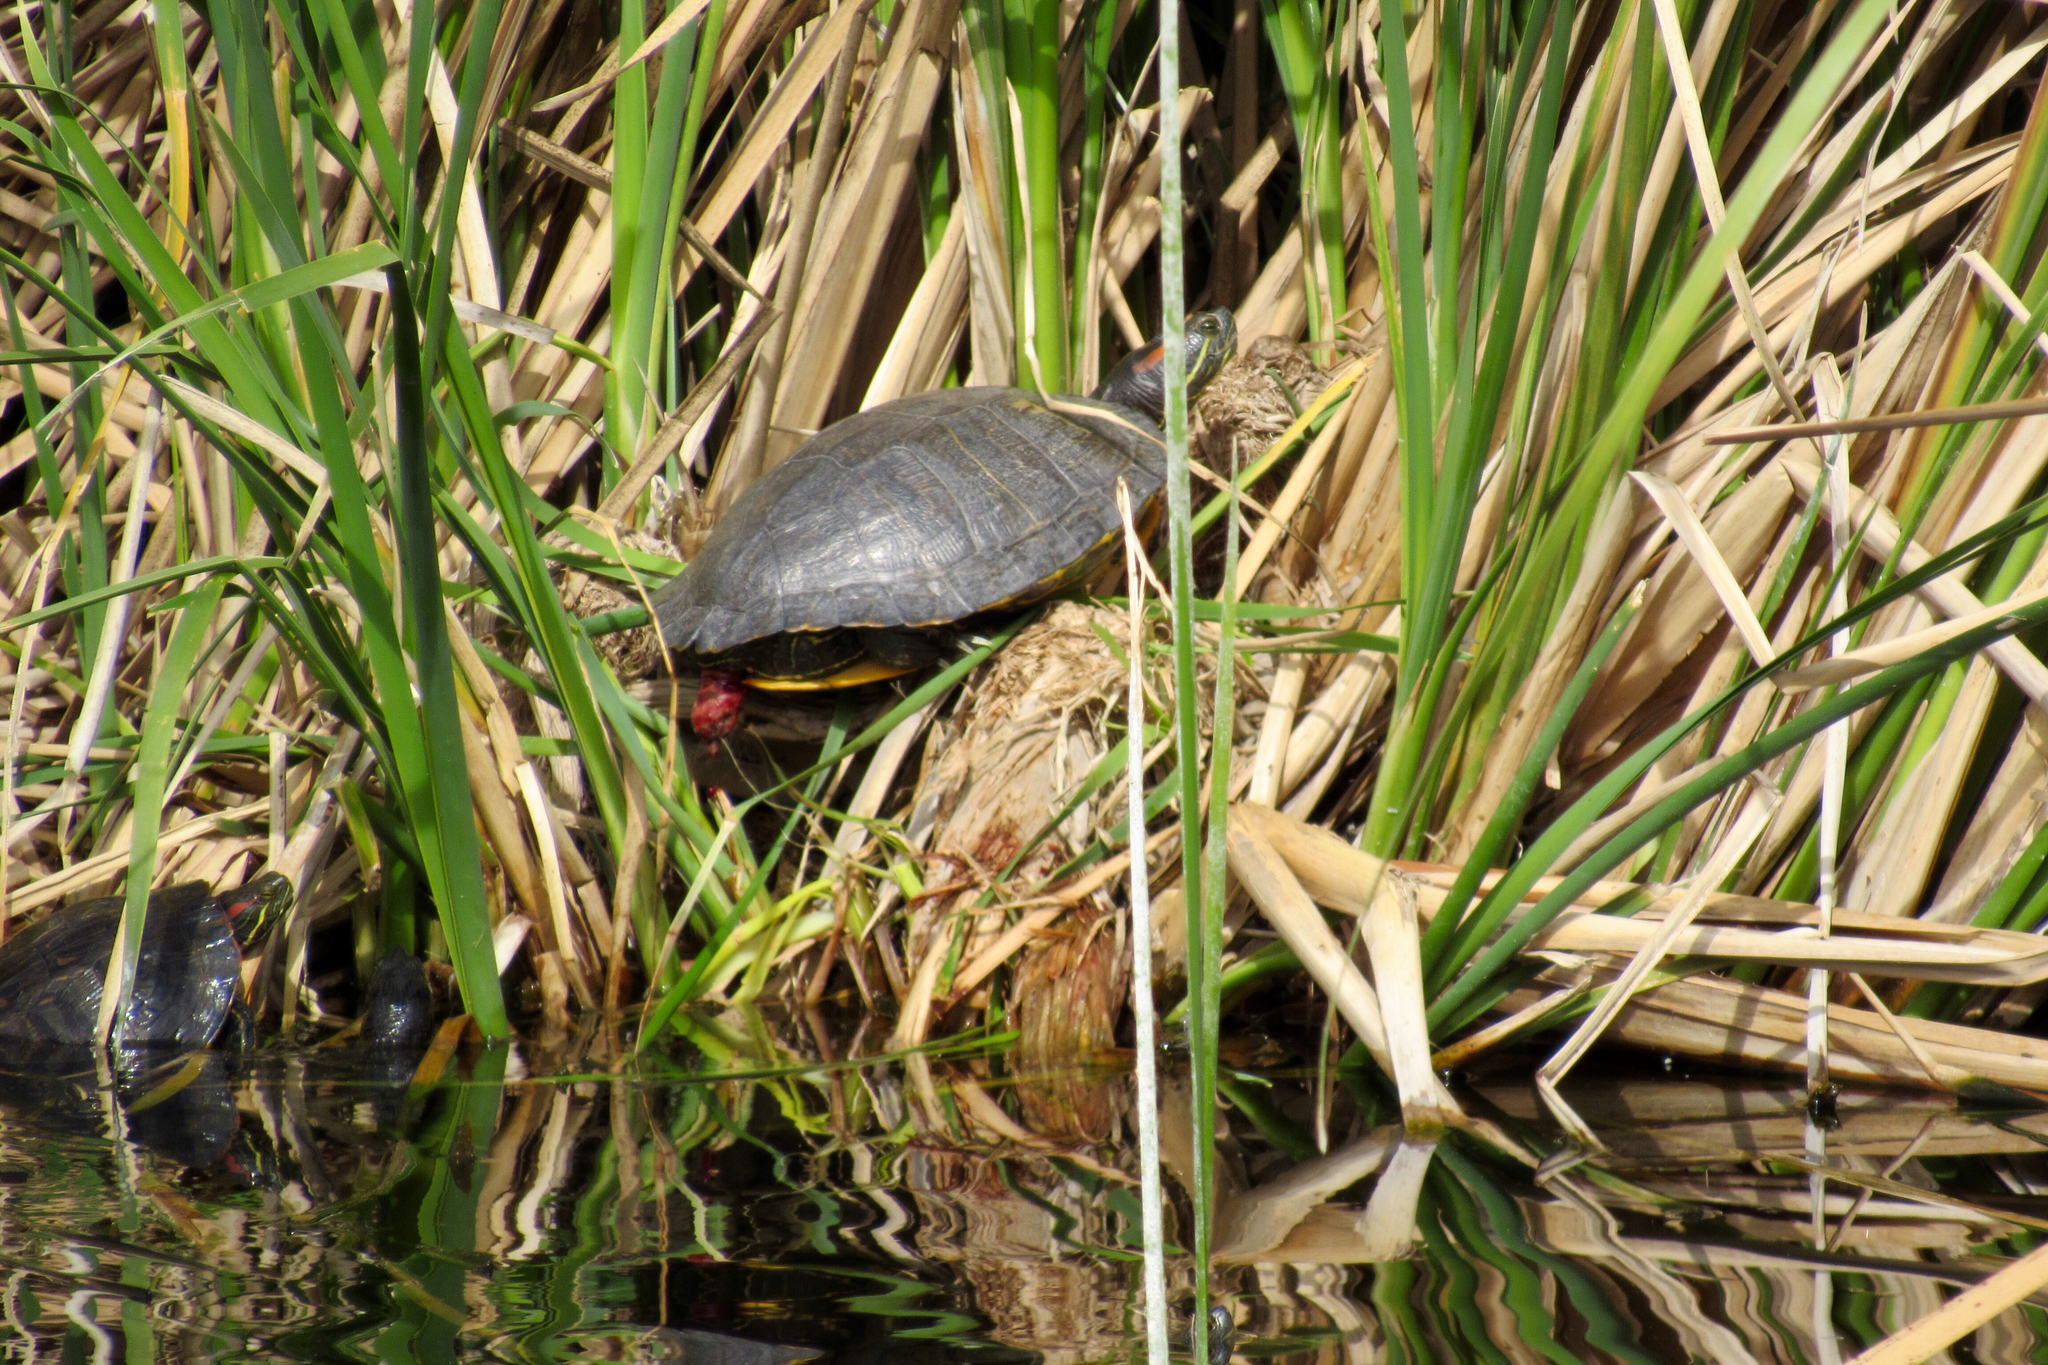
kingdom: Animalia
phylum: Chordata
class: Testudines
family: Emydidae
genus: Trachemys
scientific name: Trachemys scripta
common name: Slider
